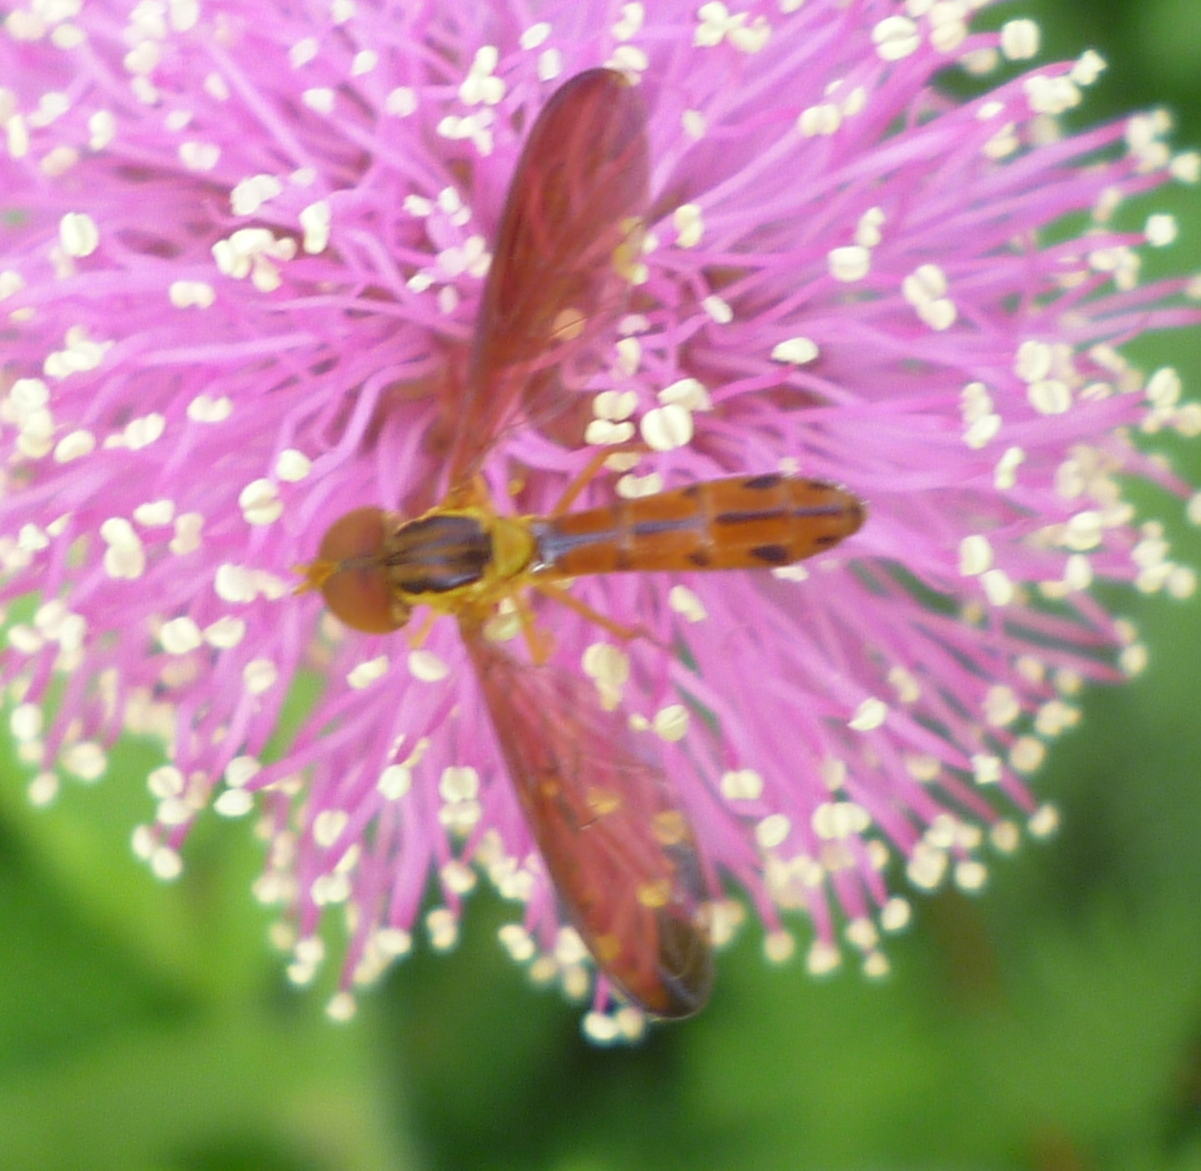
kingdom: Animalia
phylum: Arthropoda
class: Insecta
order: Diptera
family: Syrphidae
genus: Nuntianus
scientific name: Nuntianus cubanus
